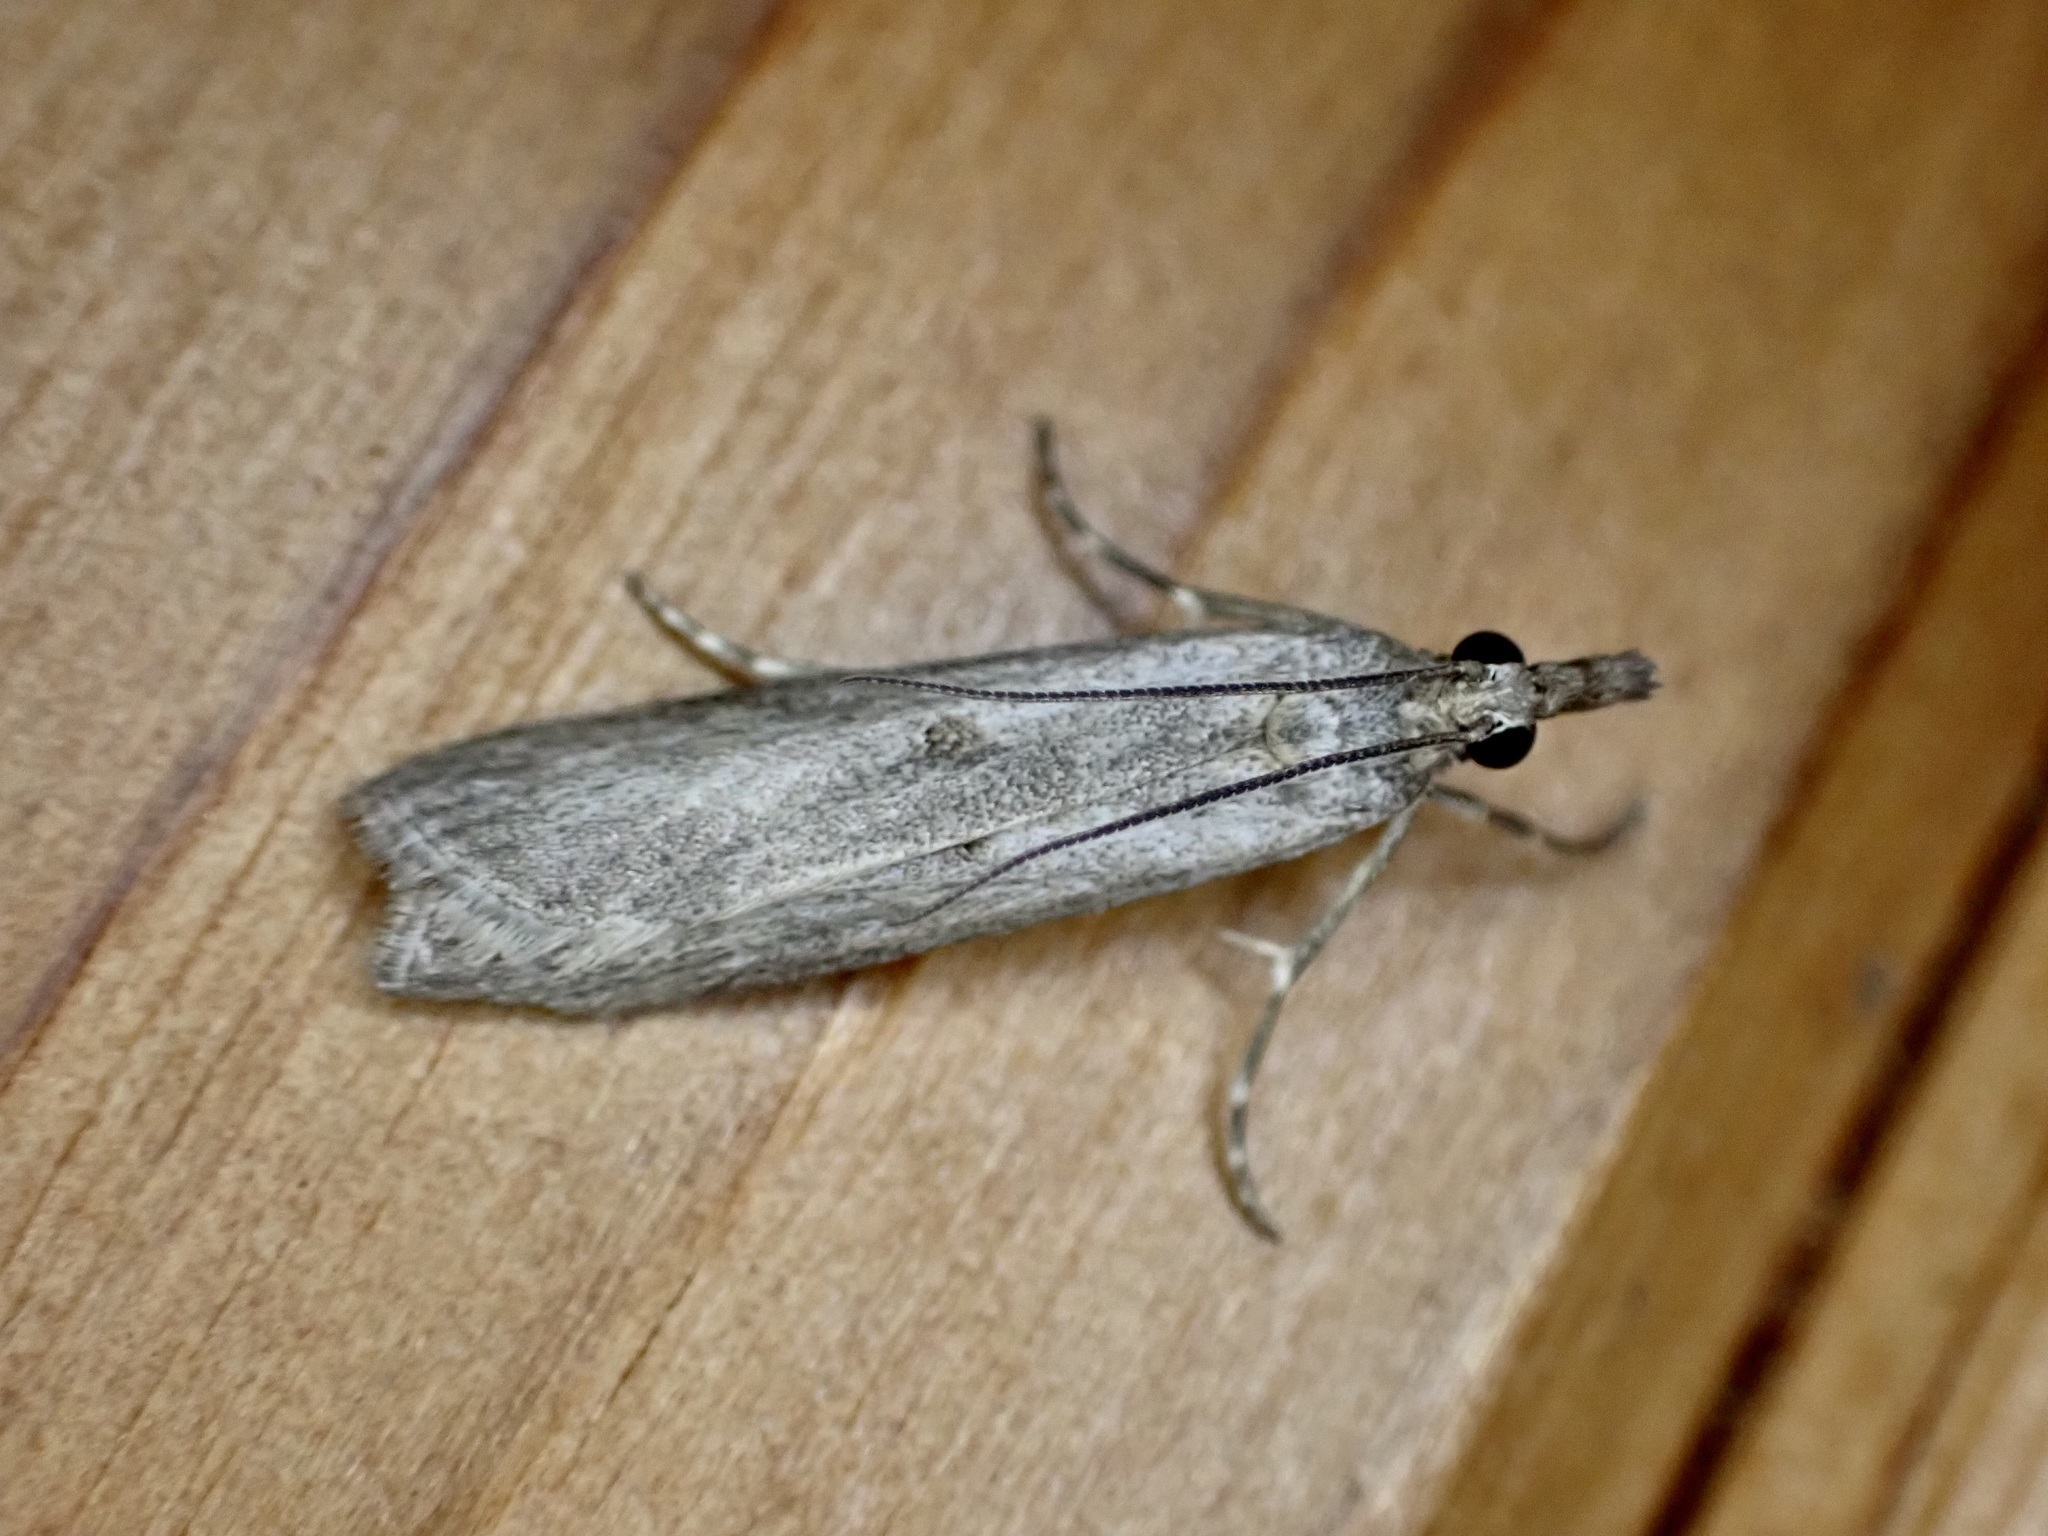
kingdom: Animalia
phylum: Arthropoda
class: Insecta
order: Lepidoptera
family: Crambidae
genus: Eudonia
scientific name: Eudonia leptalea
